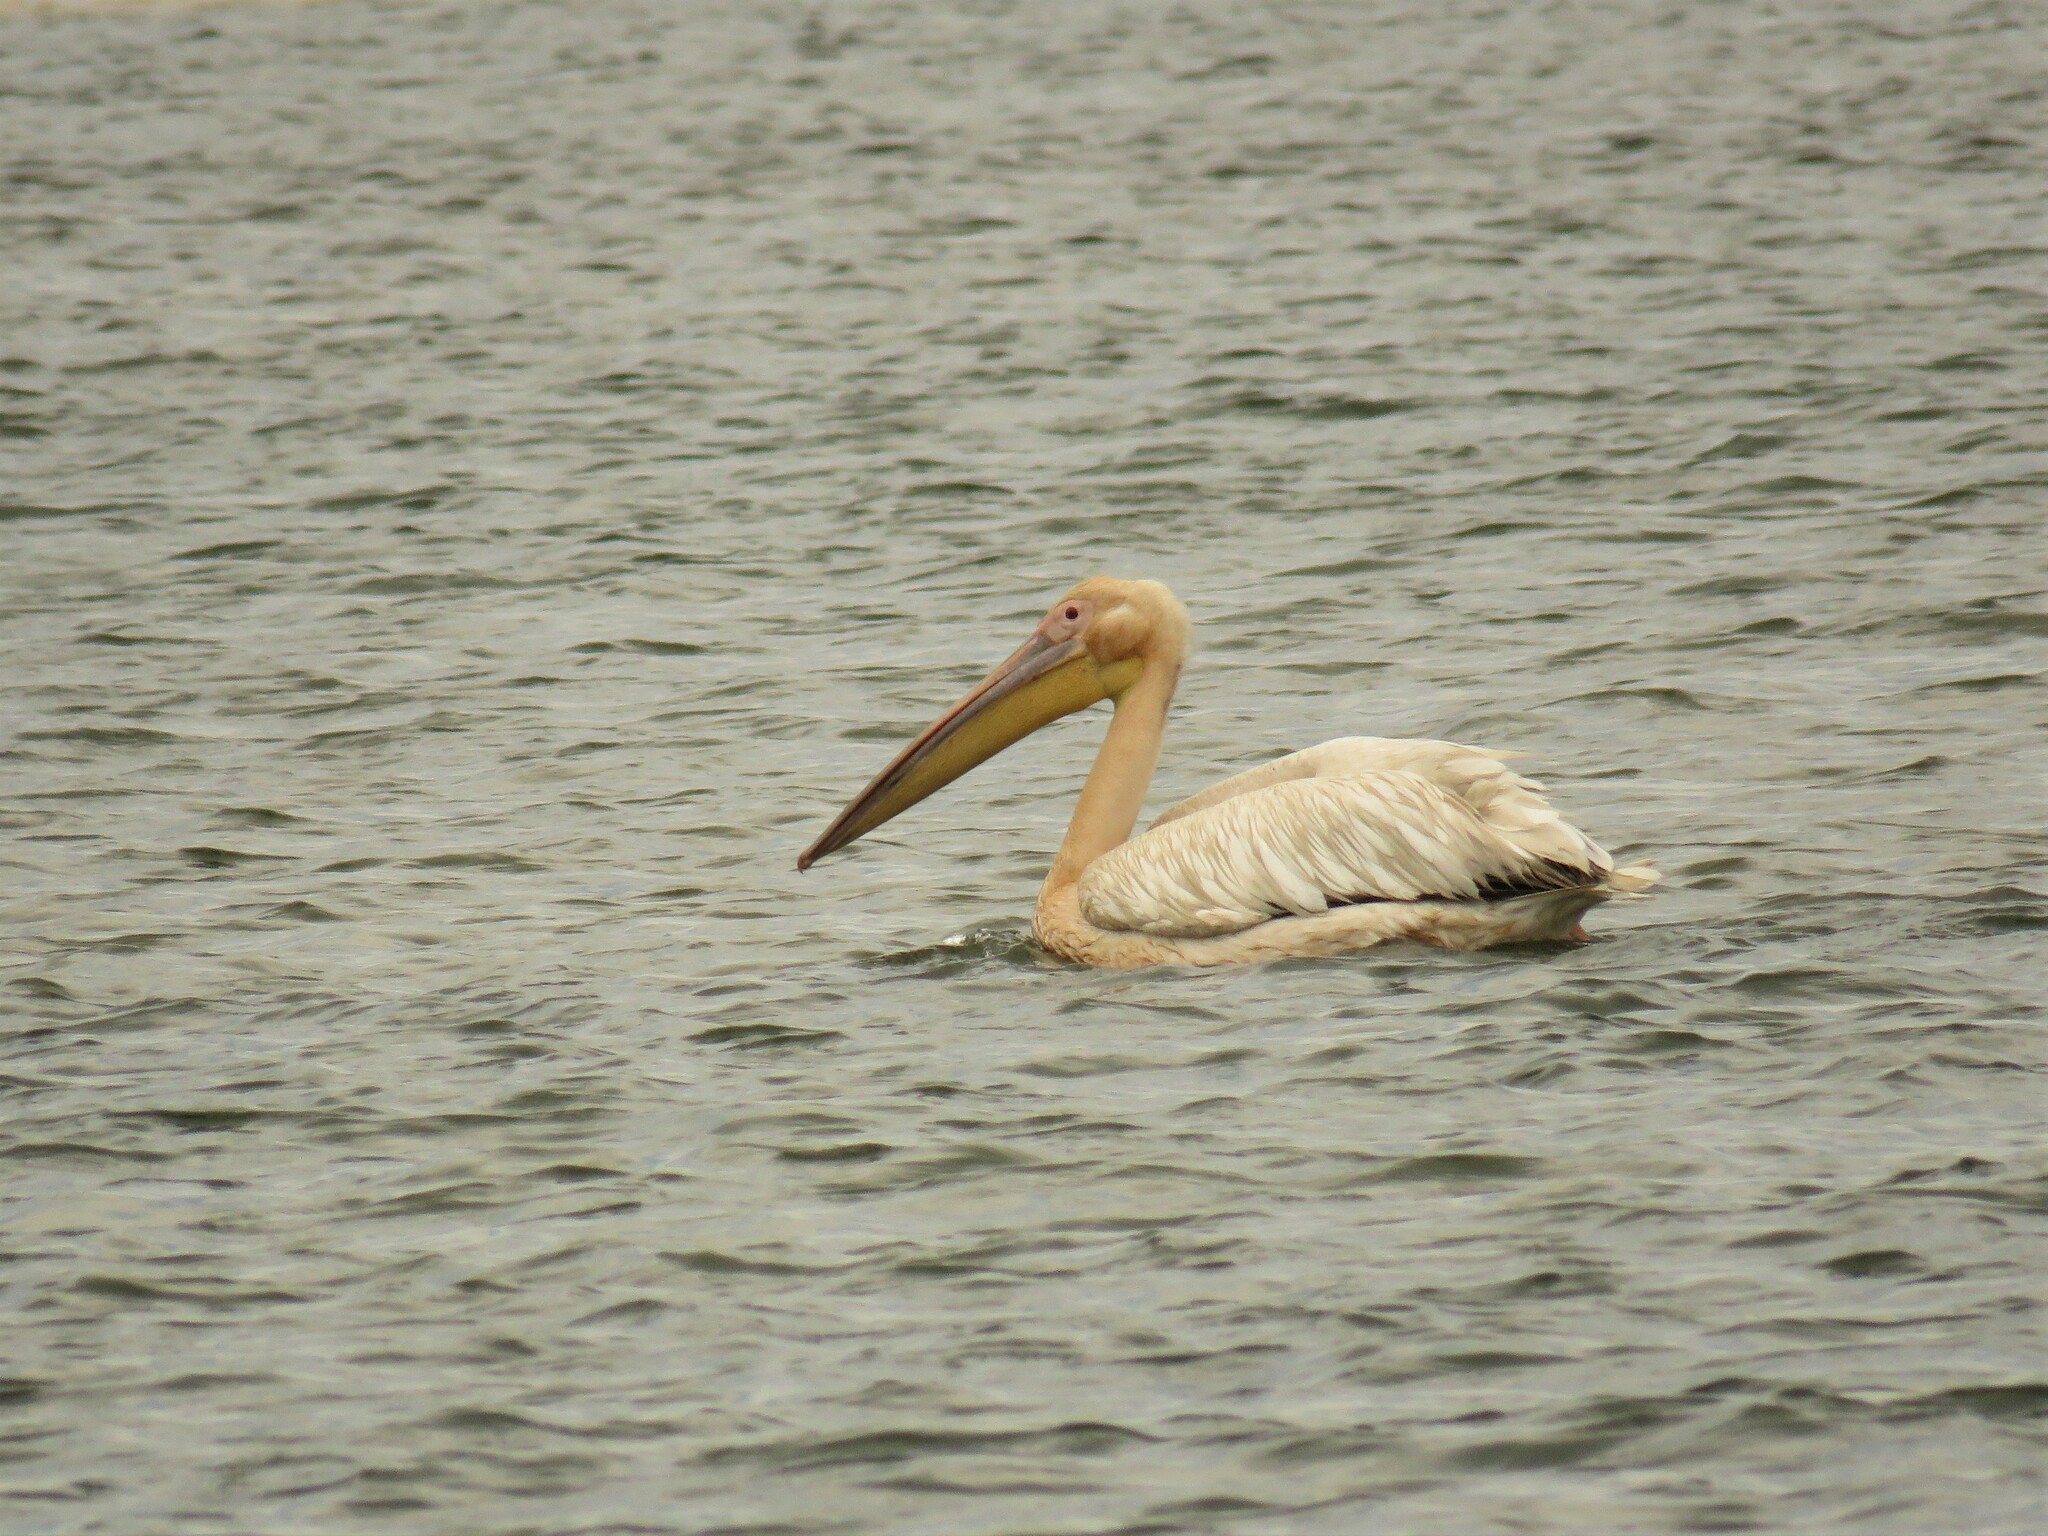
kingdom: Animalia
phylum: Chordata
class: Aves
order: Pelecaniformes
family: Pelecanidae
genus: Pelecanus
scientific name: Pelecanus onocrotalus
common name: Great white pelican
